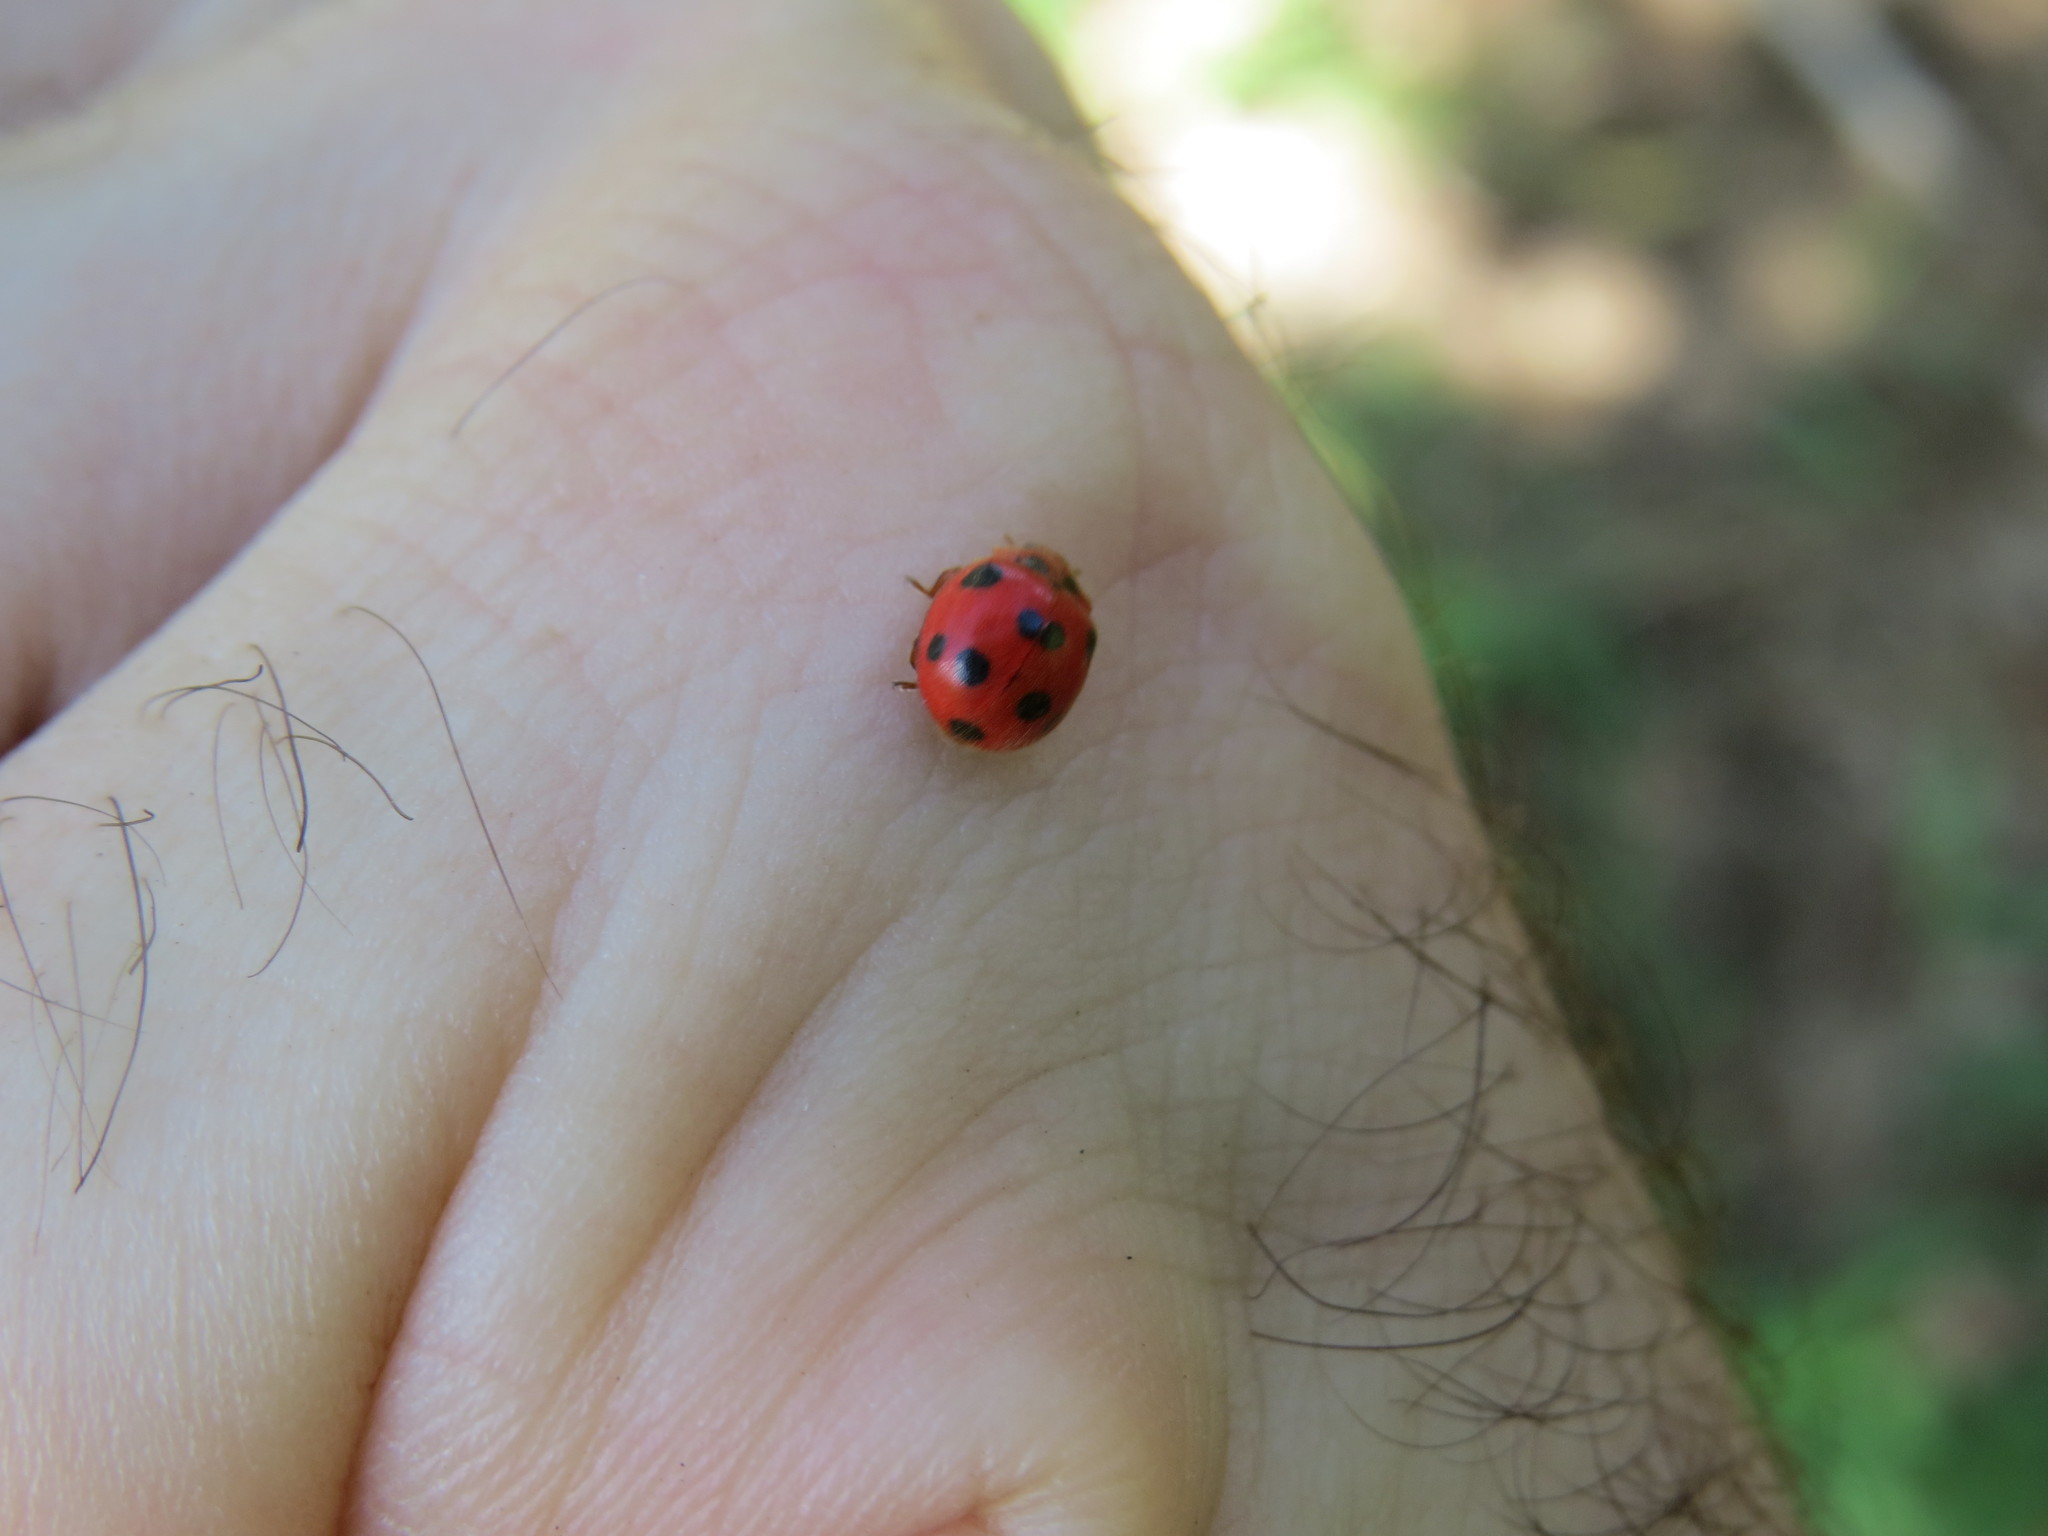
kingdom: Animalia
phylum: Arthropoda
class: Insecta
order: Coleoptera
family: Coccinellidae
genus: Exoplectra
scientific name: Exoplectra
